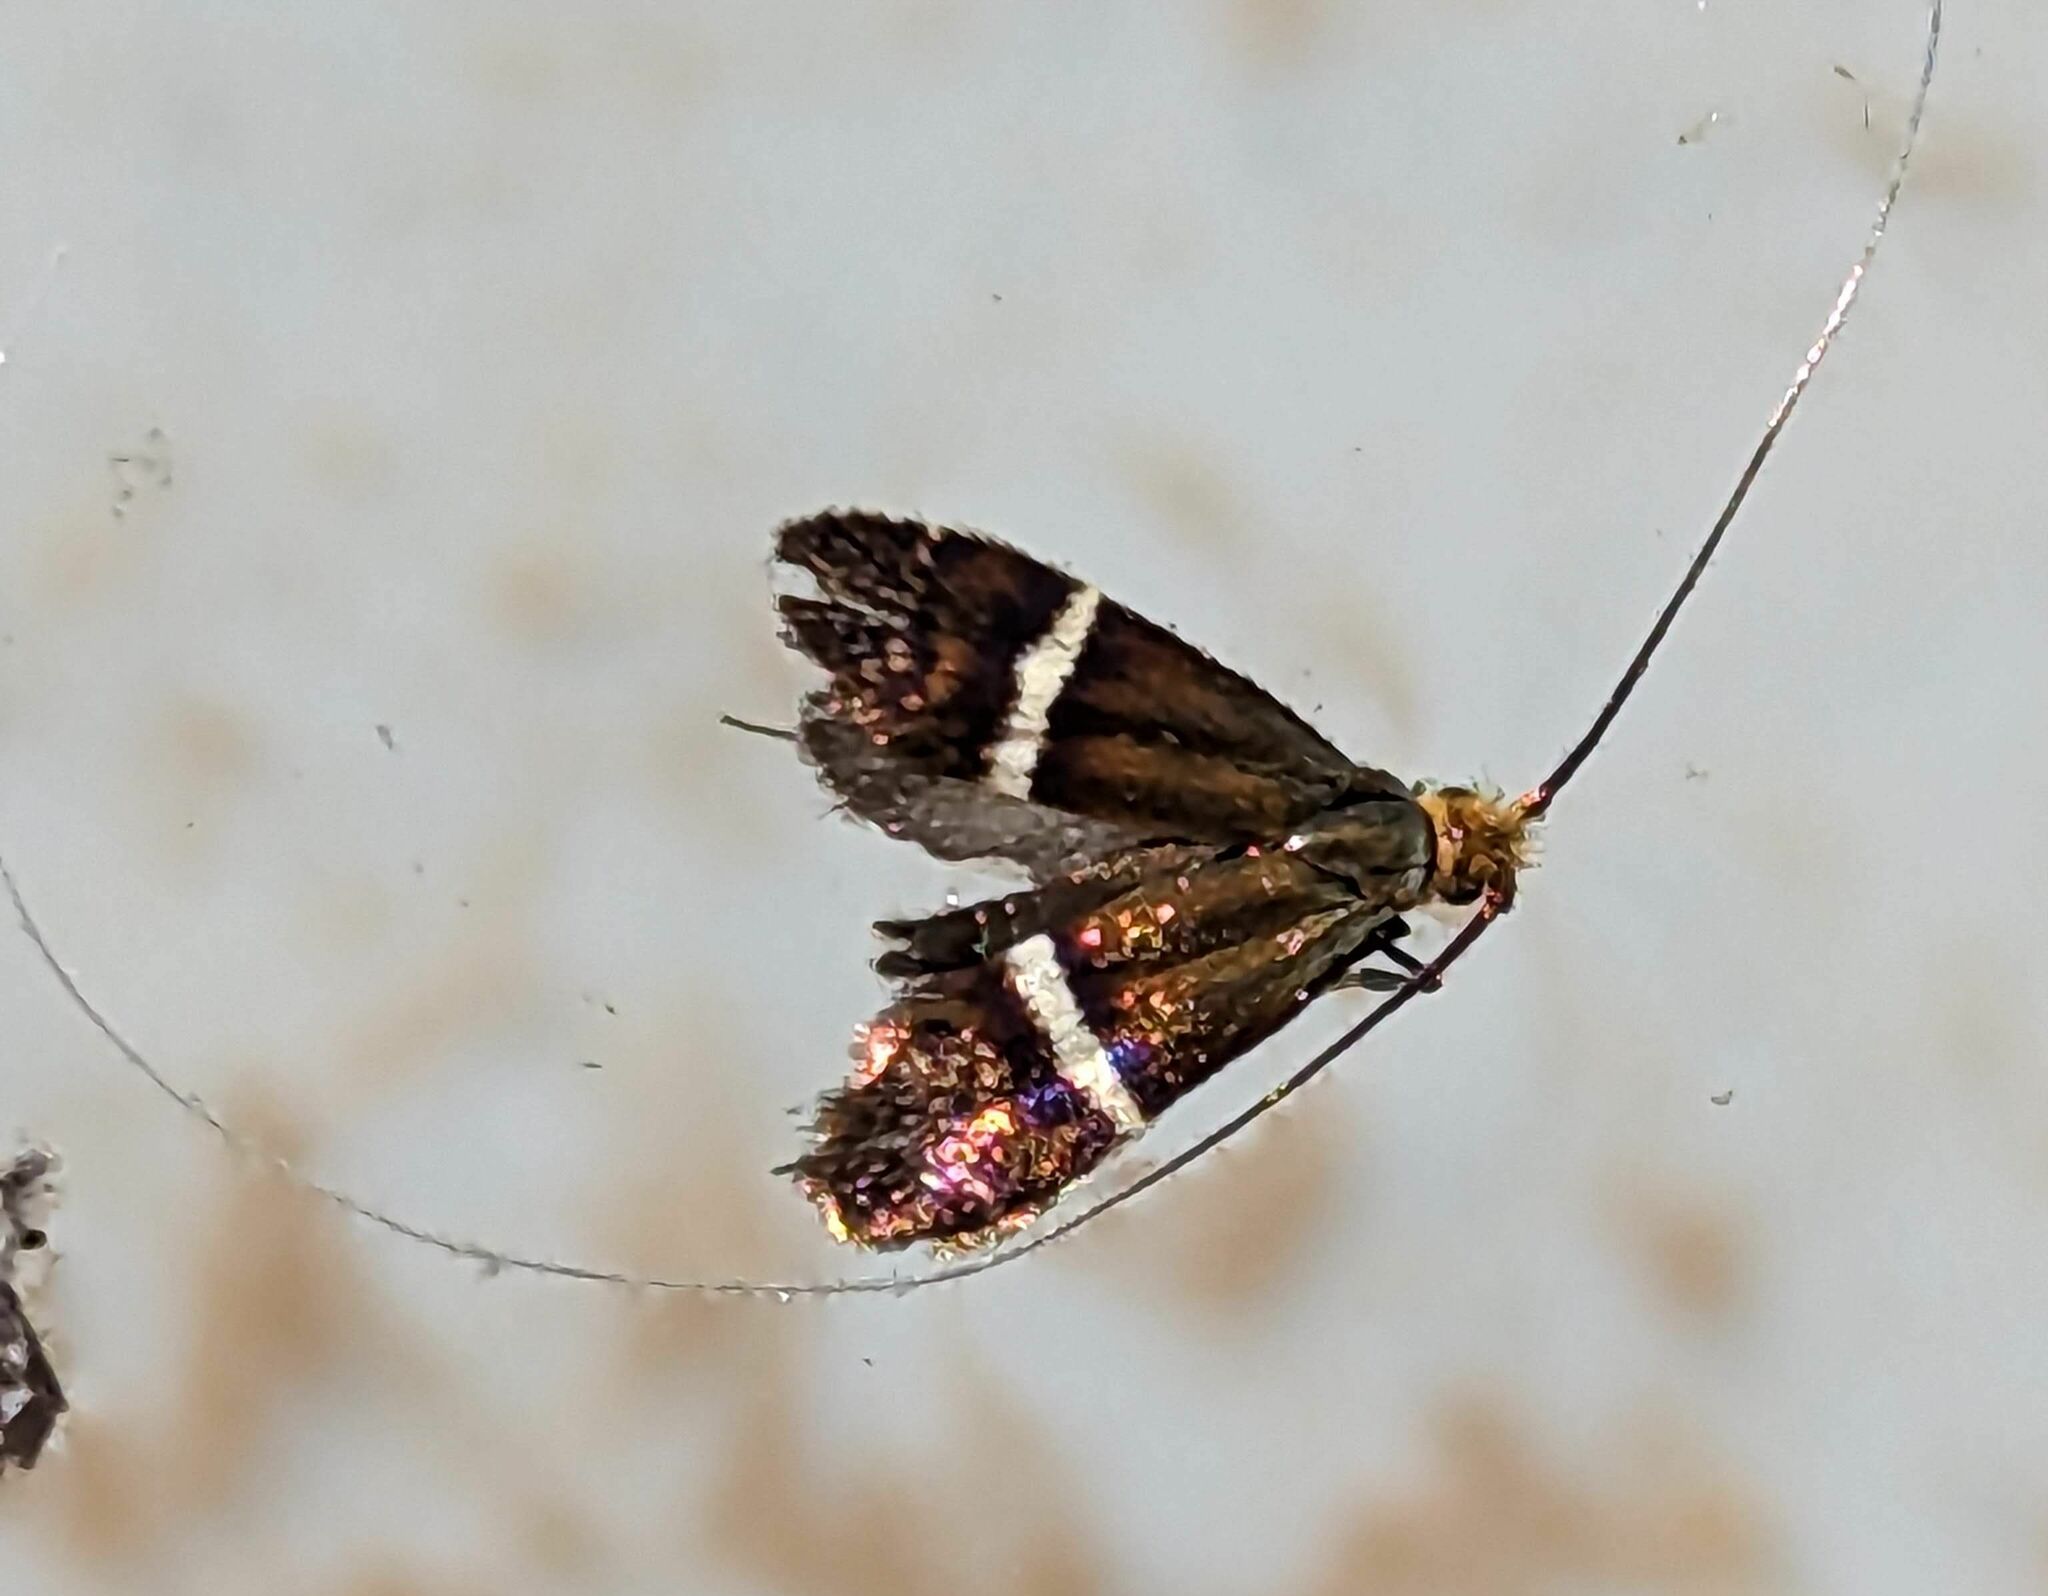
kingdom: Animalia
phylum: Arthropoda
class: Insecta
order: Lepidoptera
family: Adelidae
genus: Adela
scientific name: Adela australis
